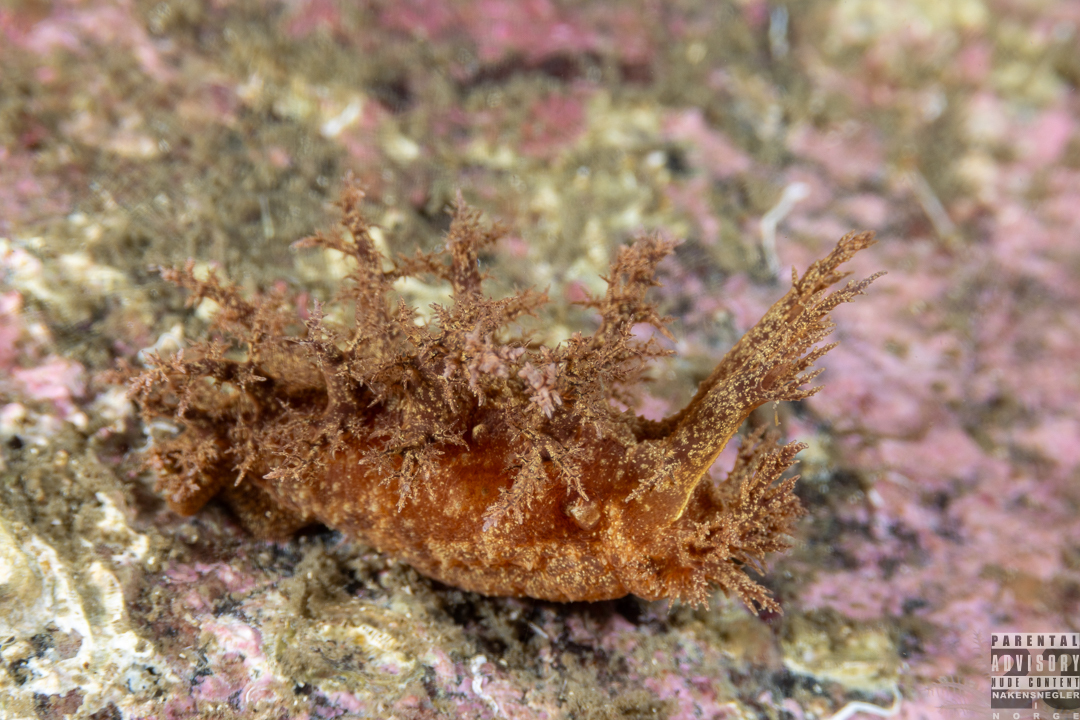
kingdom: Animalia
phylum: Mollusca
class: Gastropoda
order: Nudibranchia
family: Dendronotidae
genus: Dendronotus
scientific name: Dendronotus europaeus
